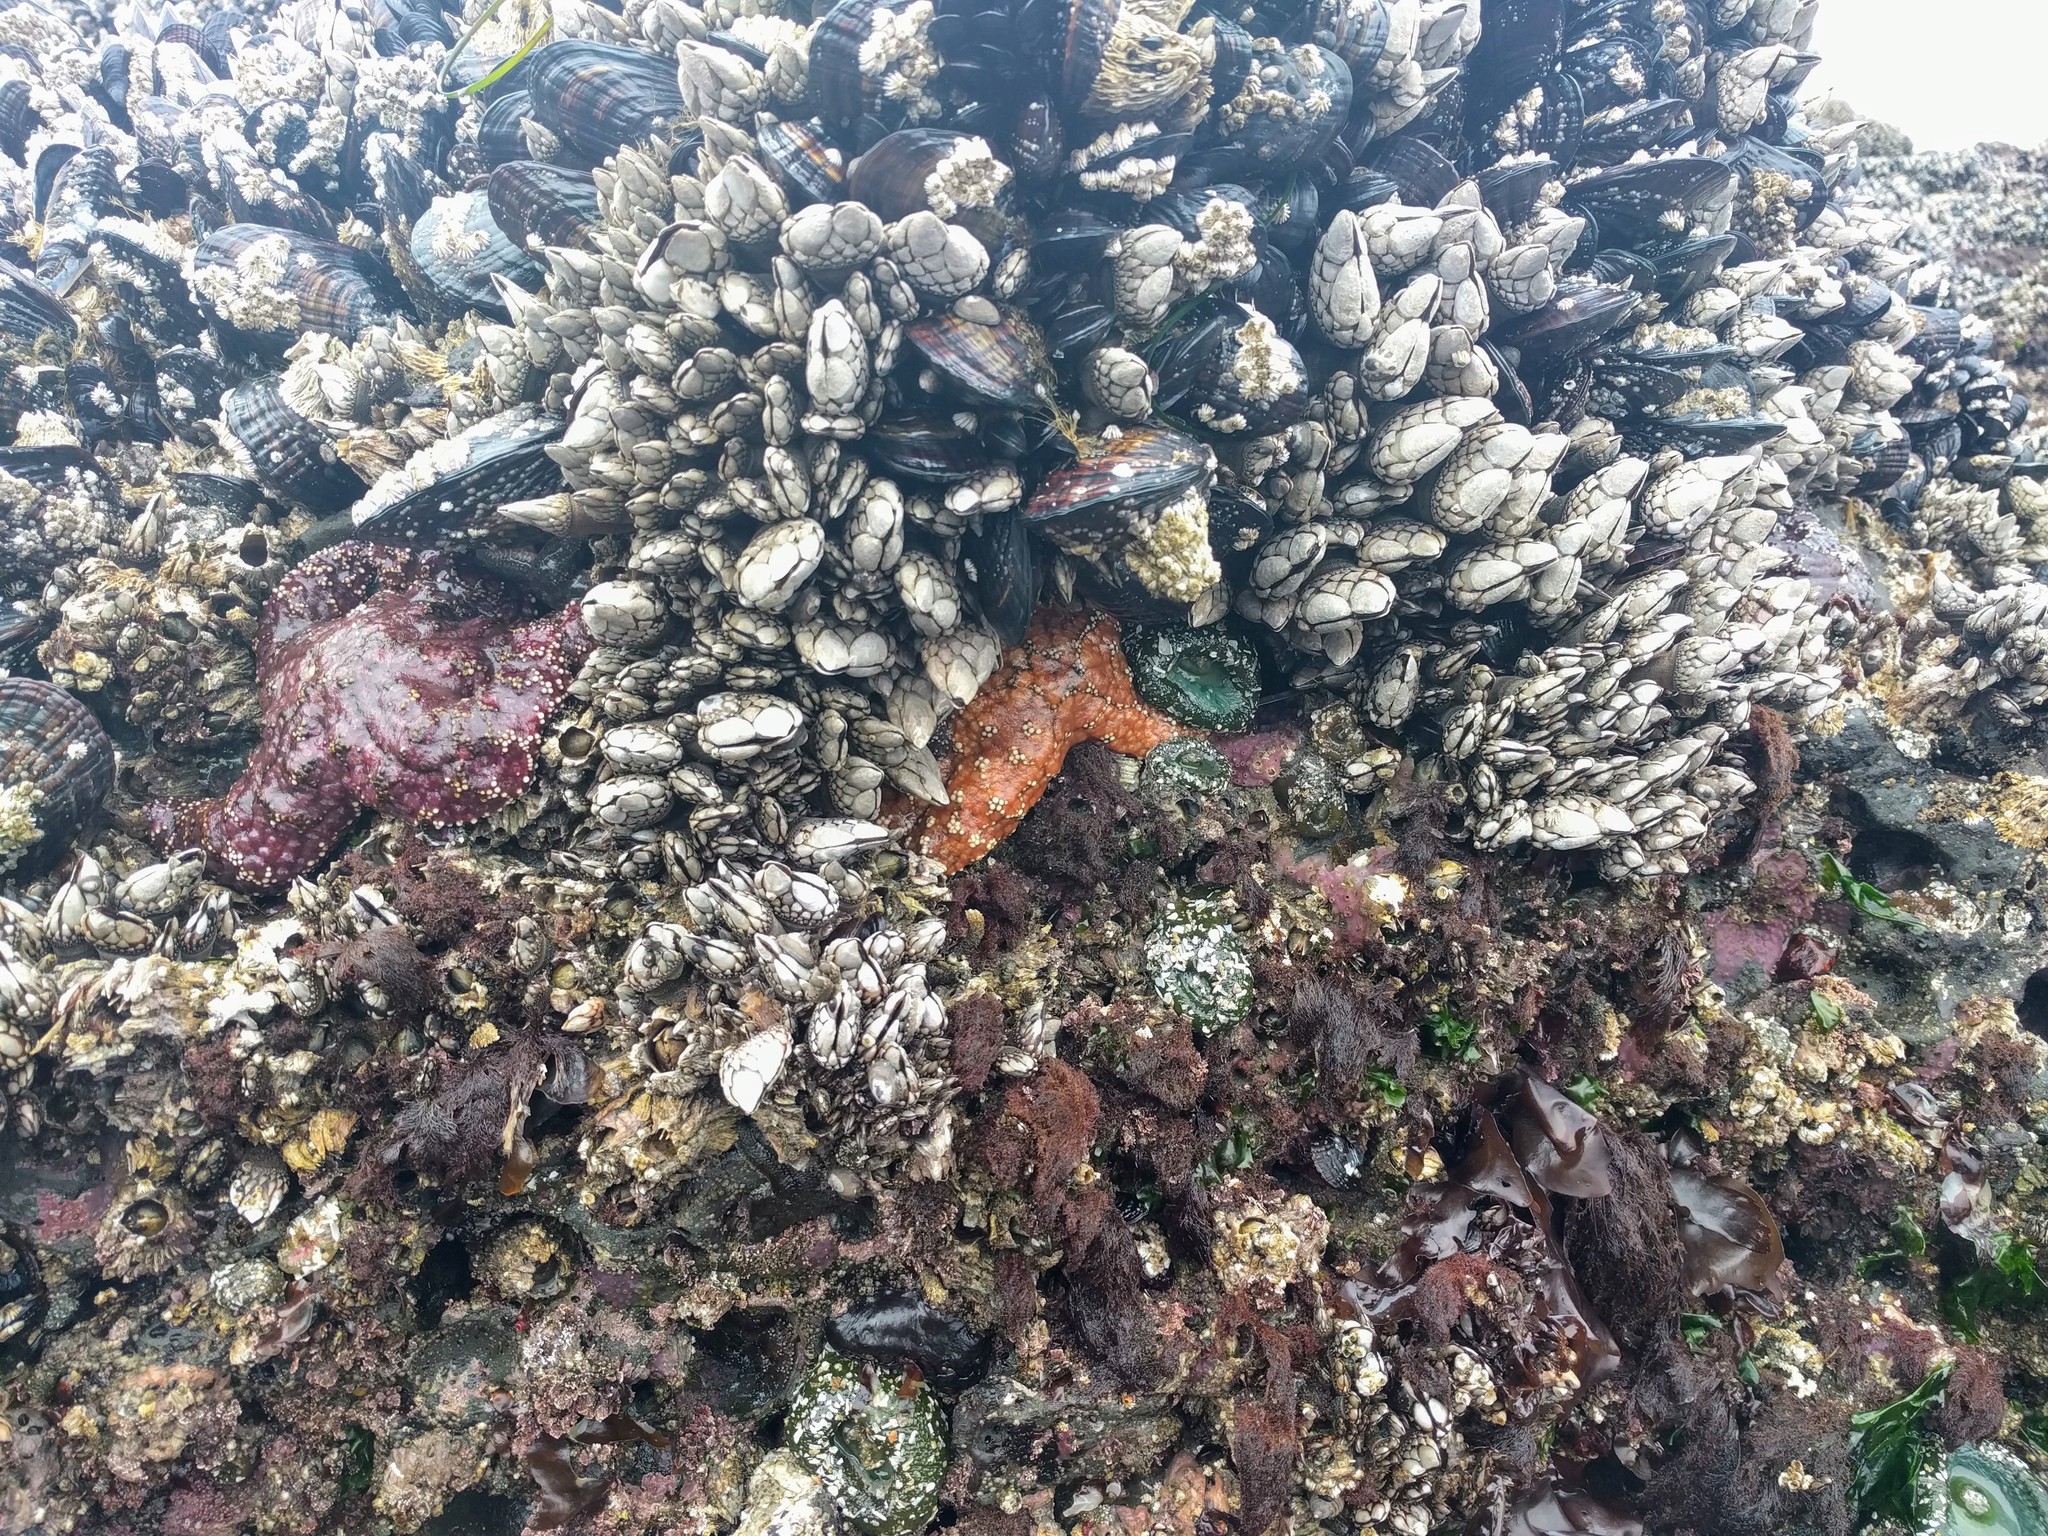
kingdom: Animalia
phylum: Arthropoda
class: Maxillopoda
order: Pedunculata
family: Pollicipedidae
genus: Pollicipes
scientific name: Pollicipes polymerus
